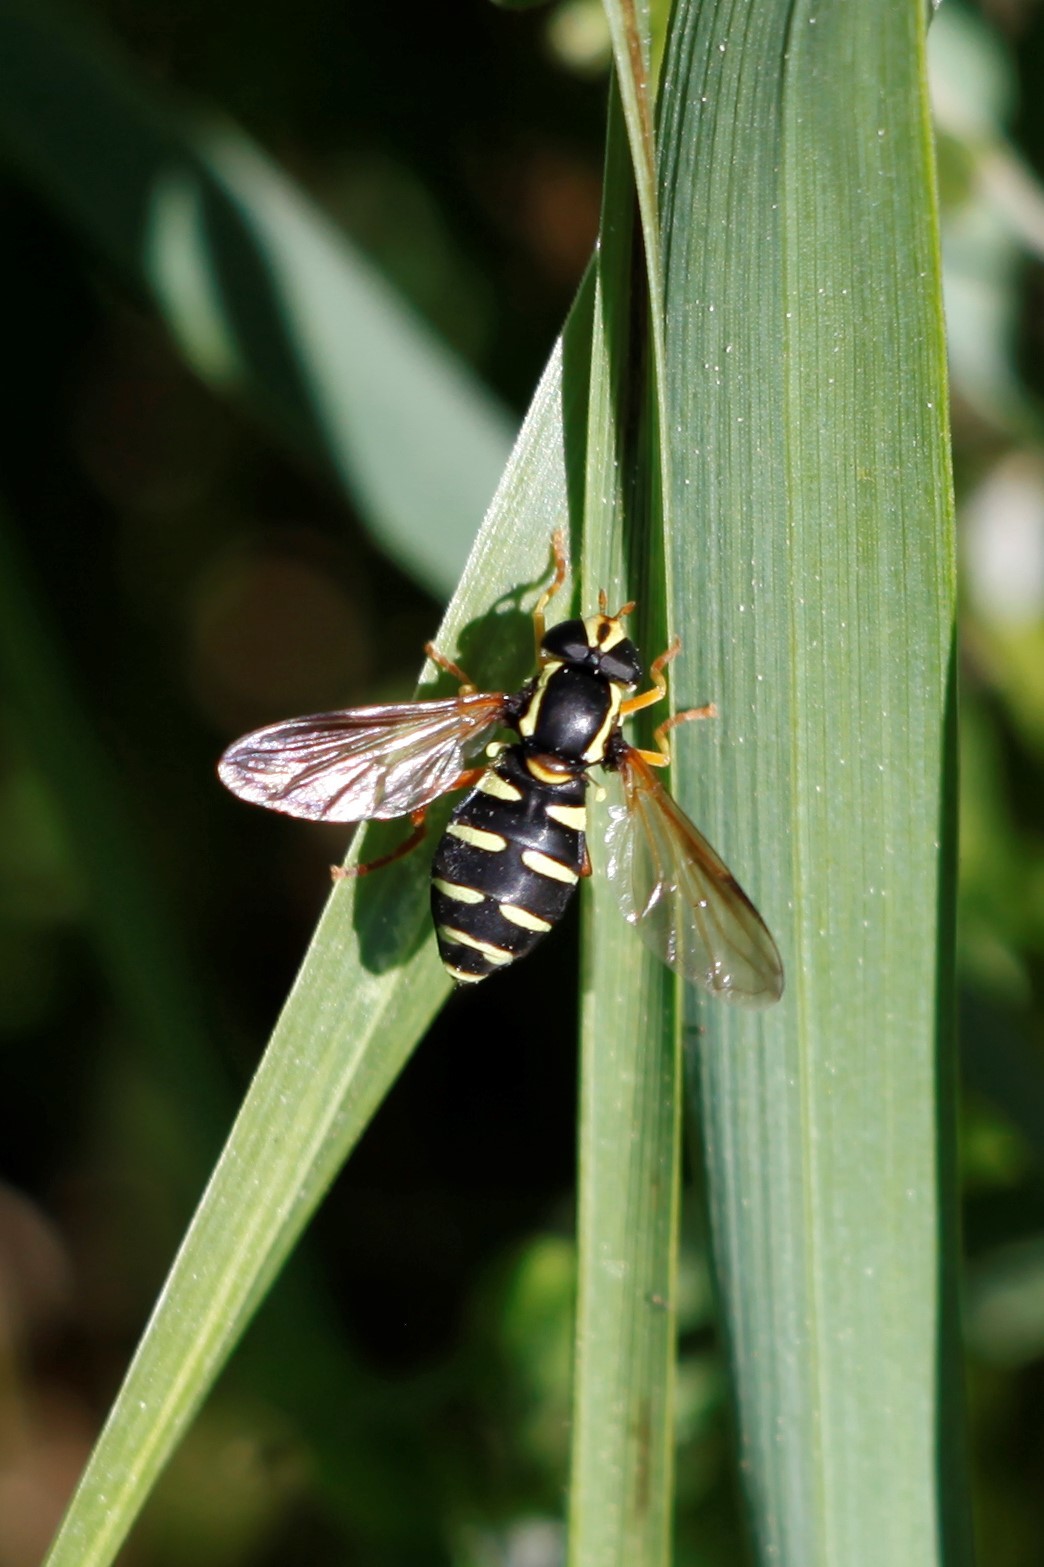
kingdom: Animalia
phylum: Arthropoda
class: Insecta
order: Diptera
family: Syrphidae
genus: Philhelius
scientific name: Philhelius citrofasciata
